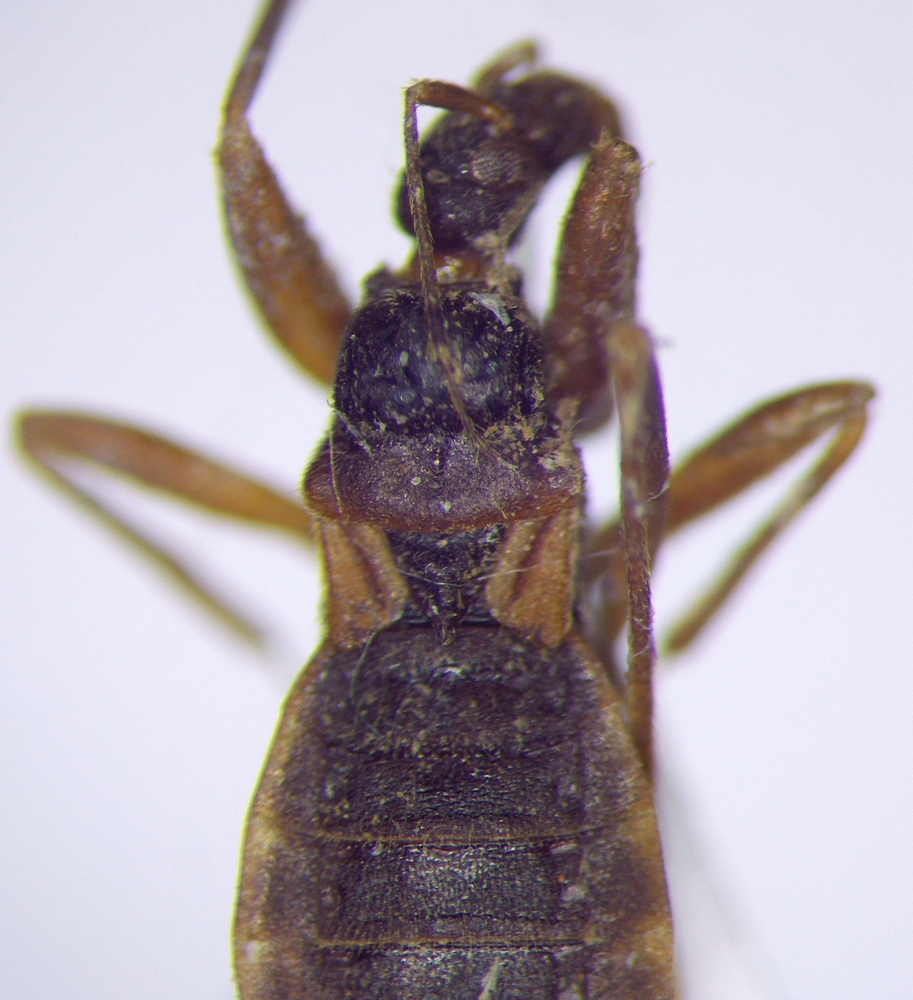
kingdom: Animalia
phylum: Arthropoda
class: Insecta
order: Hemiptera
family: Reduviidae
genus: Pasira
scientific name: Pasira marinadolina
